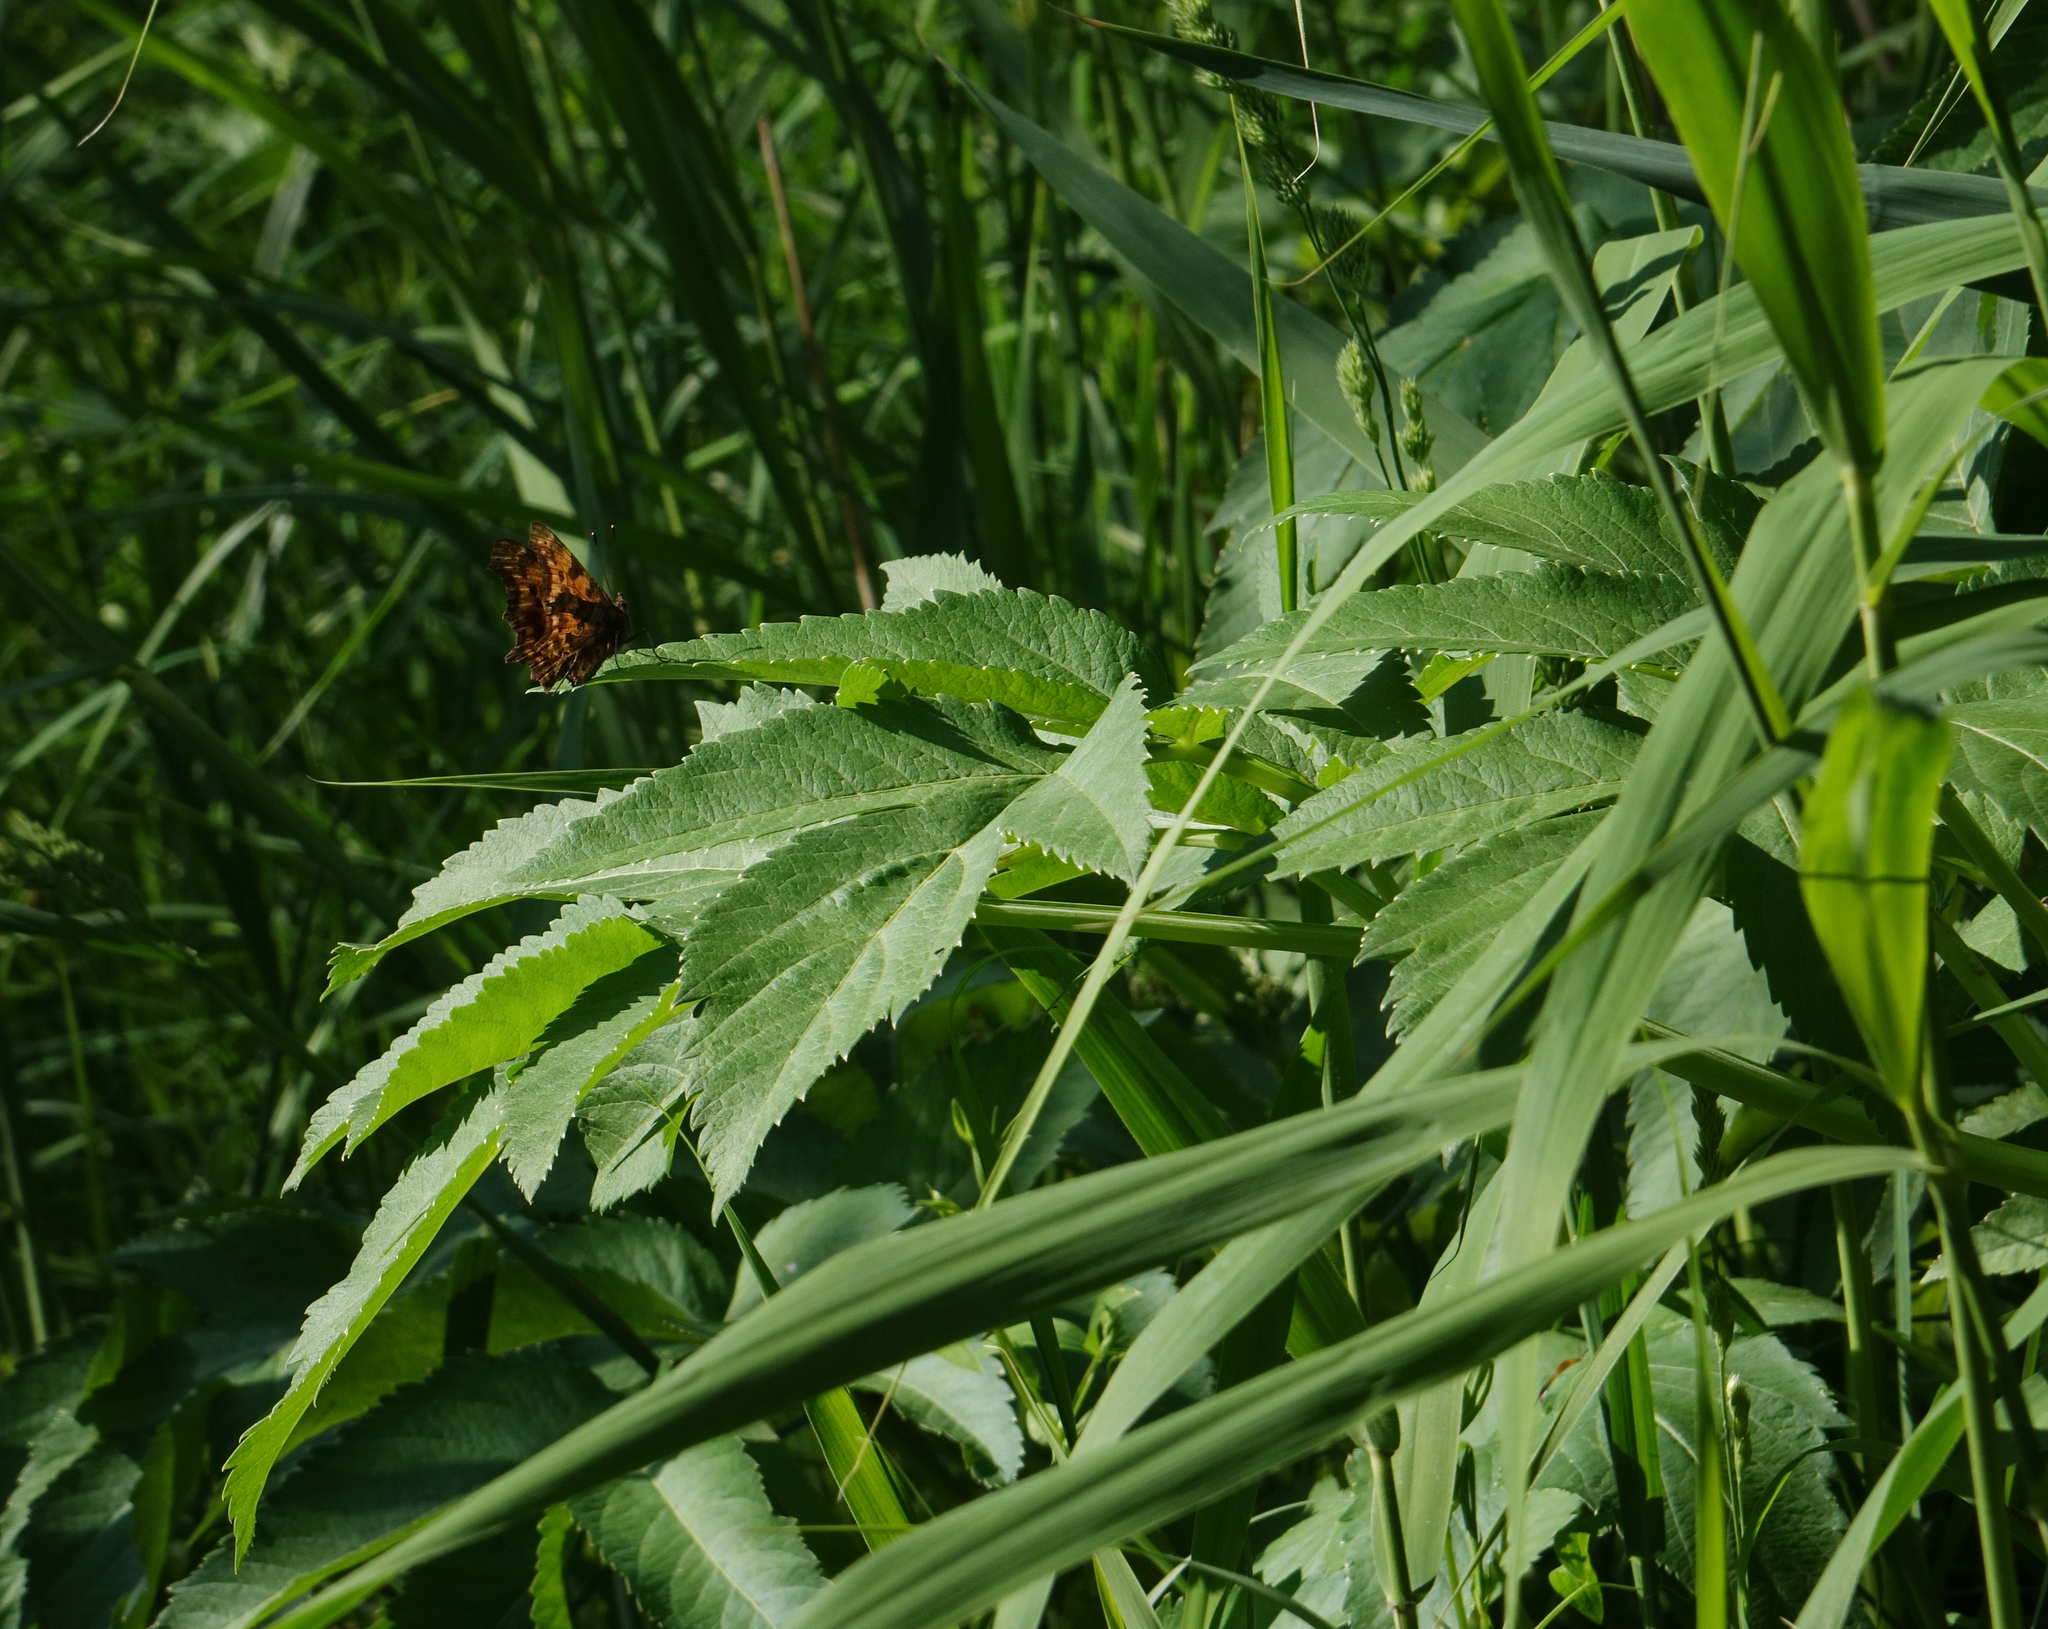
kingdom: Plantae
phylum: Tracheophyta
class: Magnoliopsida
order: Apiales
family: Apiaceae
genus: Angelica
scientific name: Angelica decurrens
